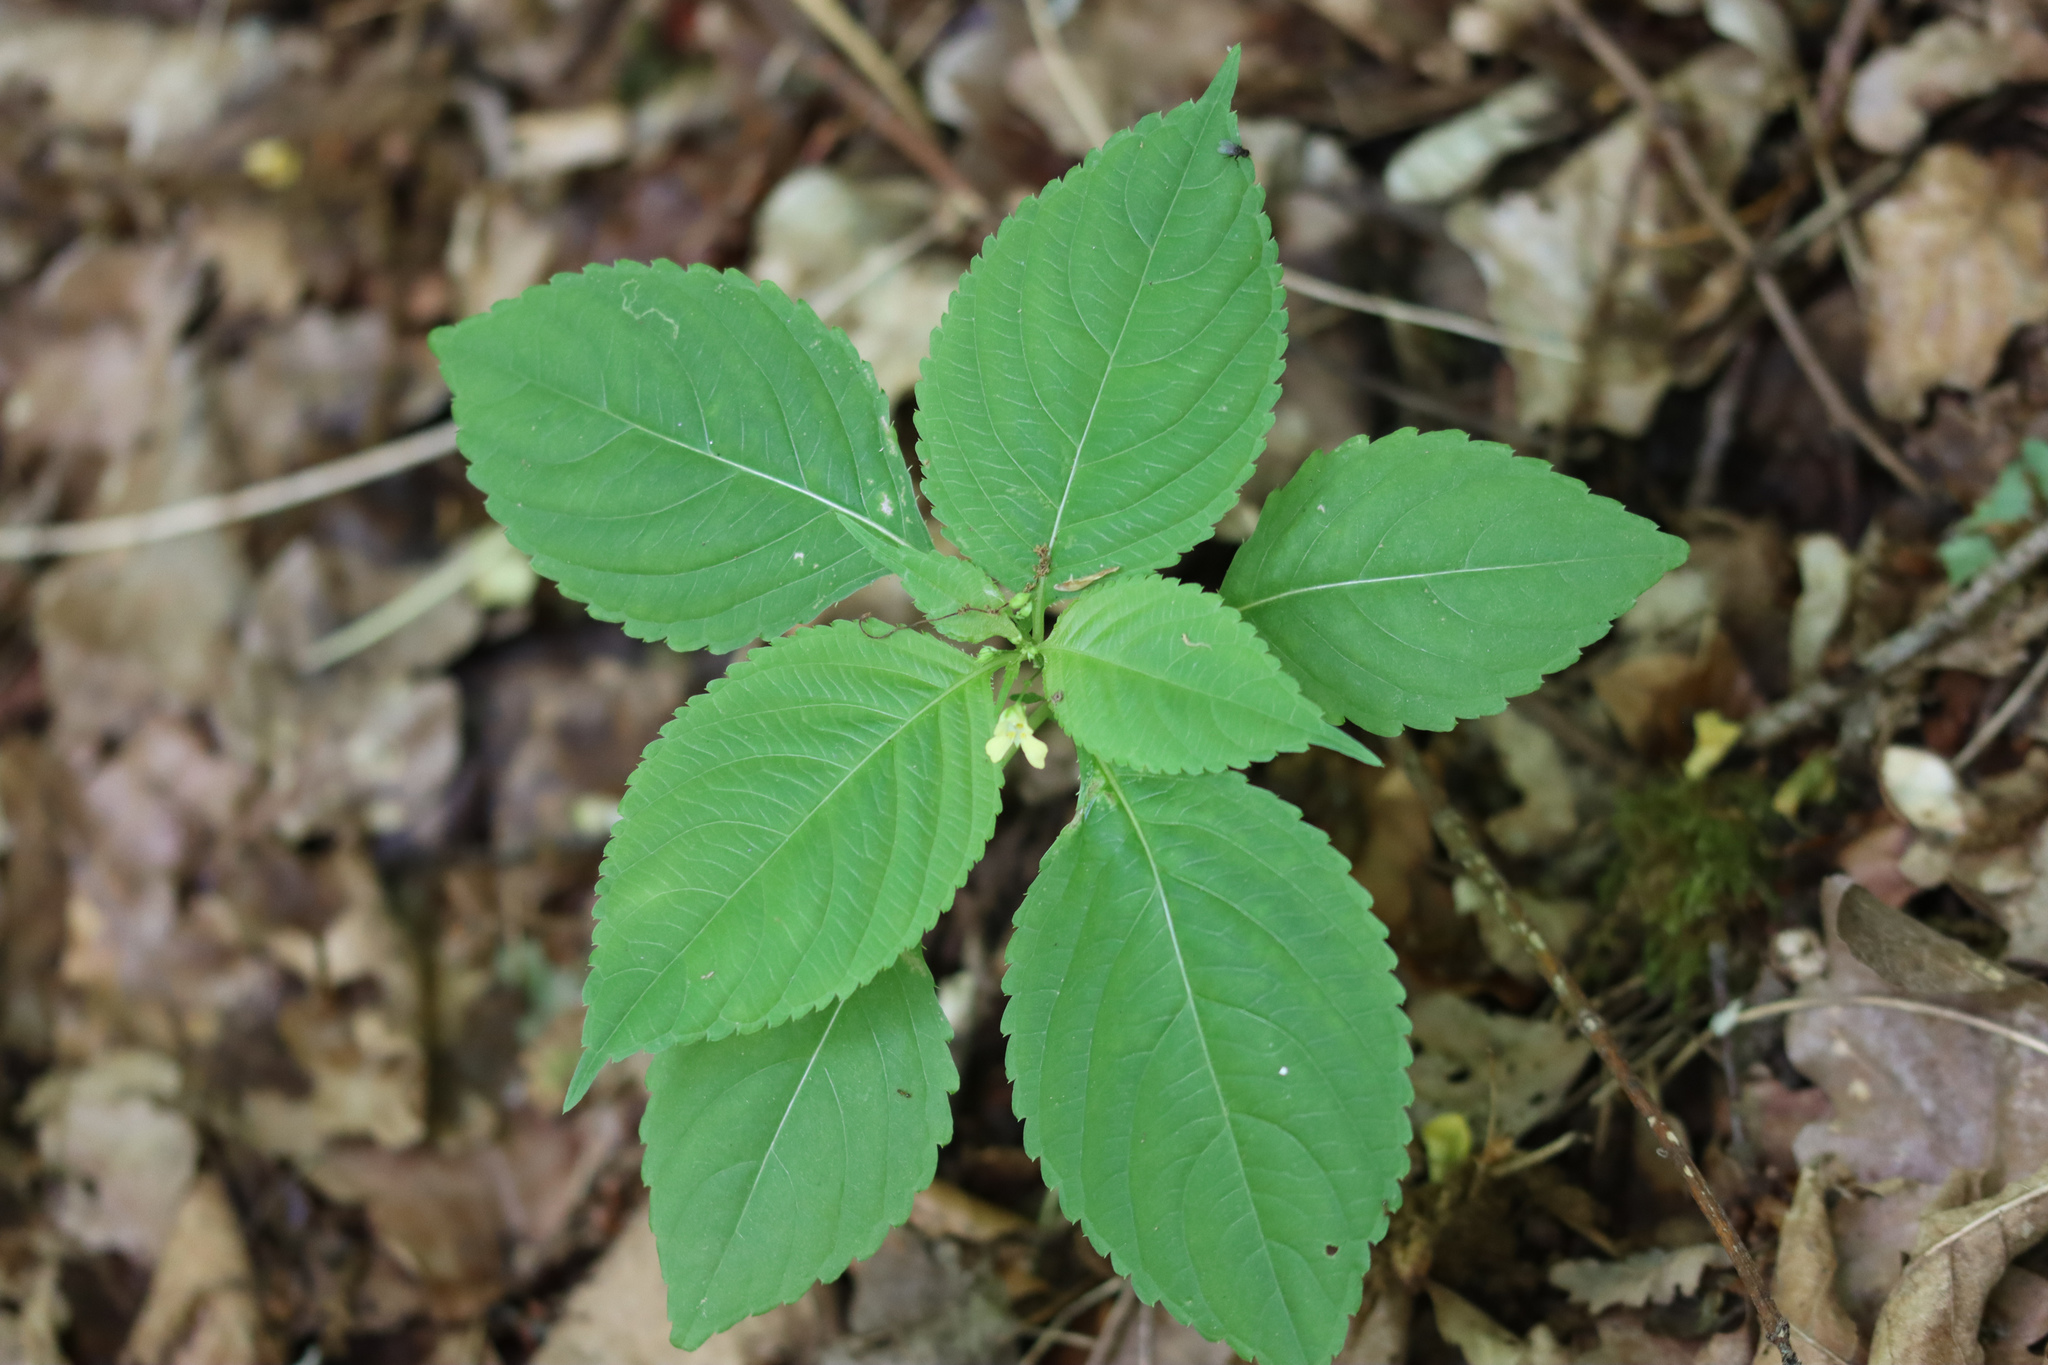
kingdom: Plantae
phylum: Tracheophyta
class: Magnoliopsida
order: Ericales
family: Balsaminaceae
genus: Impatiens
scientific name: Impatiens parviflora
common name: Small balsam
